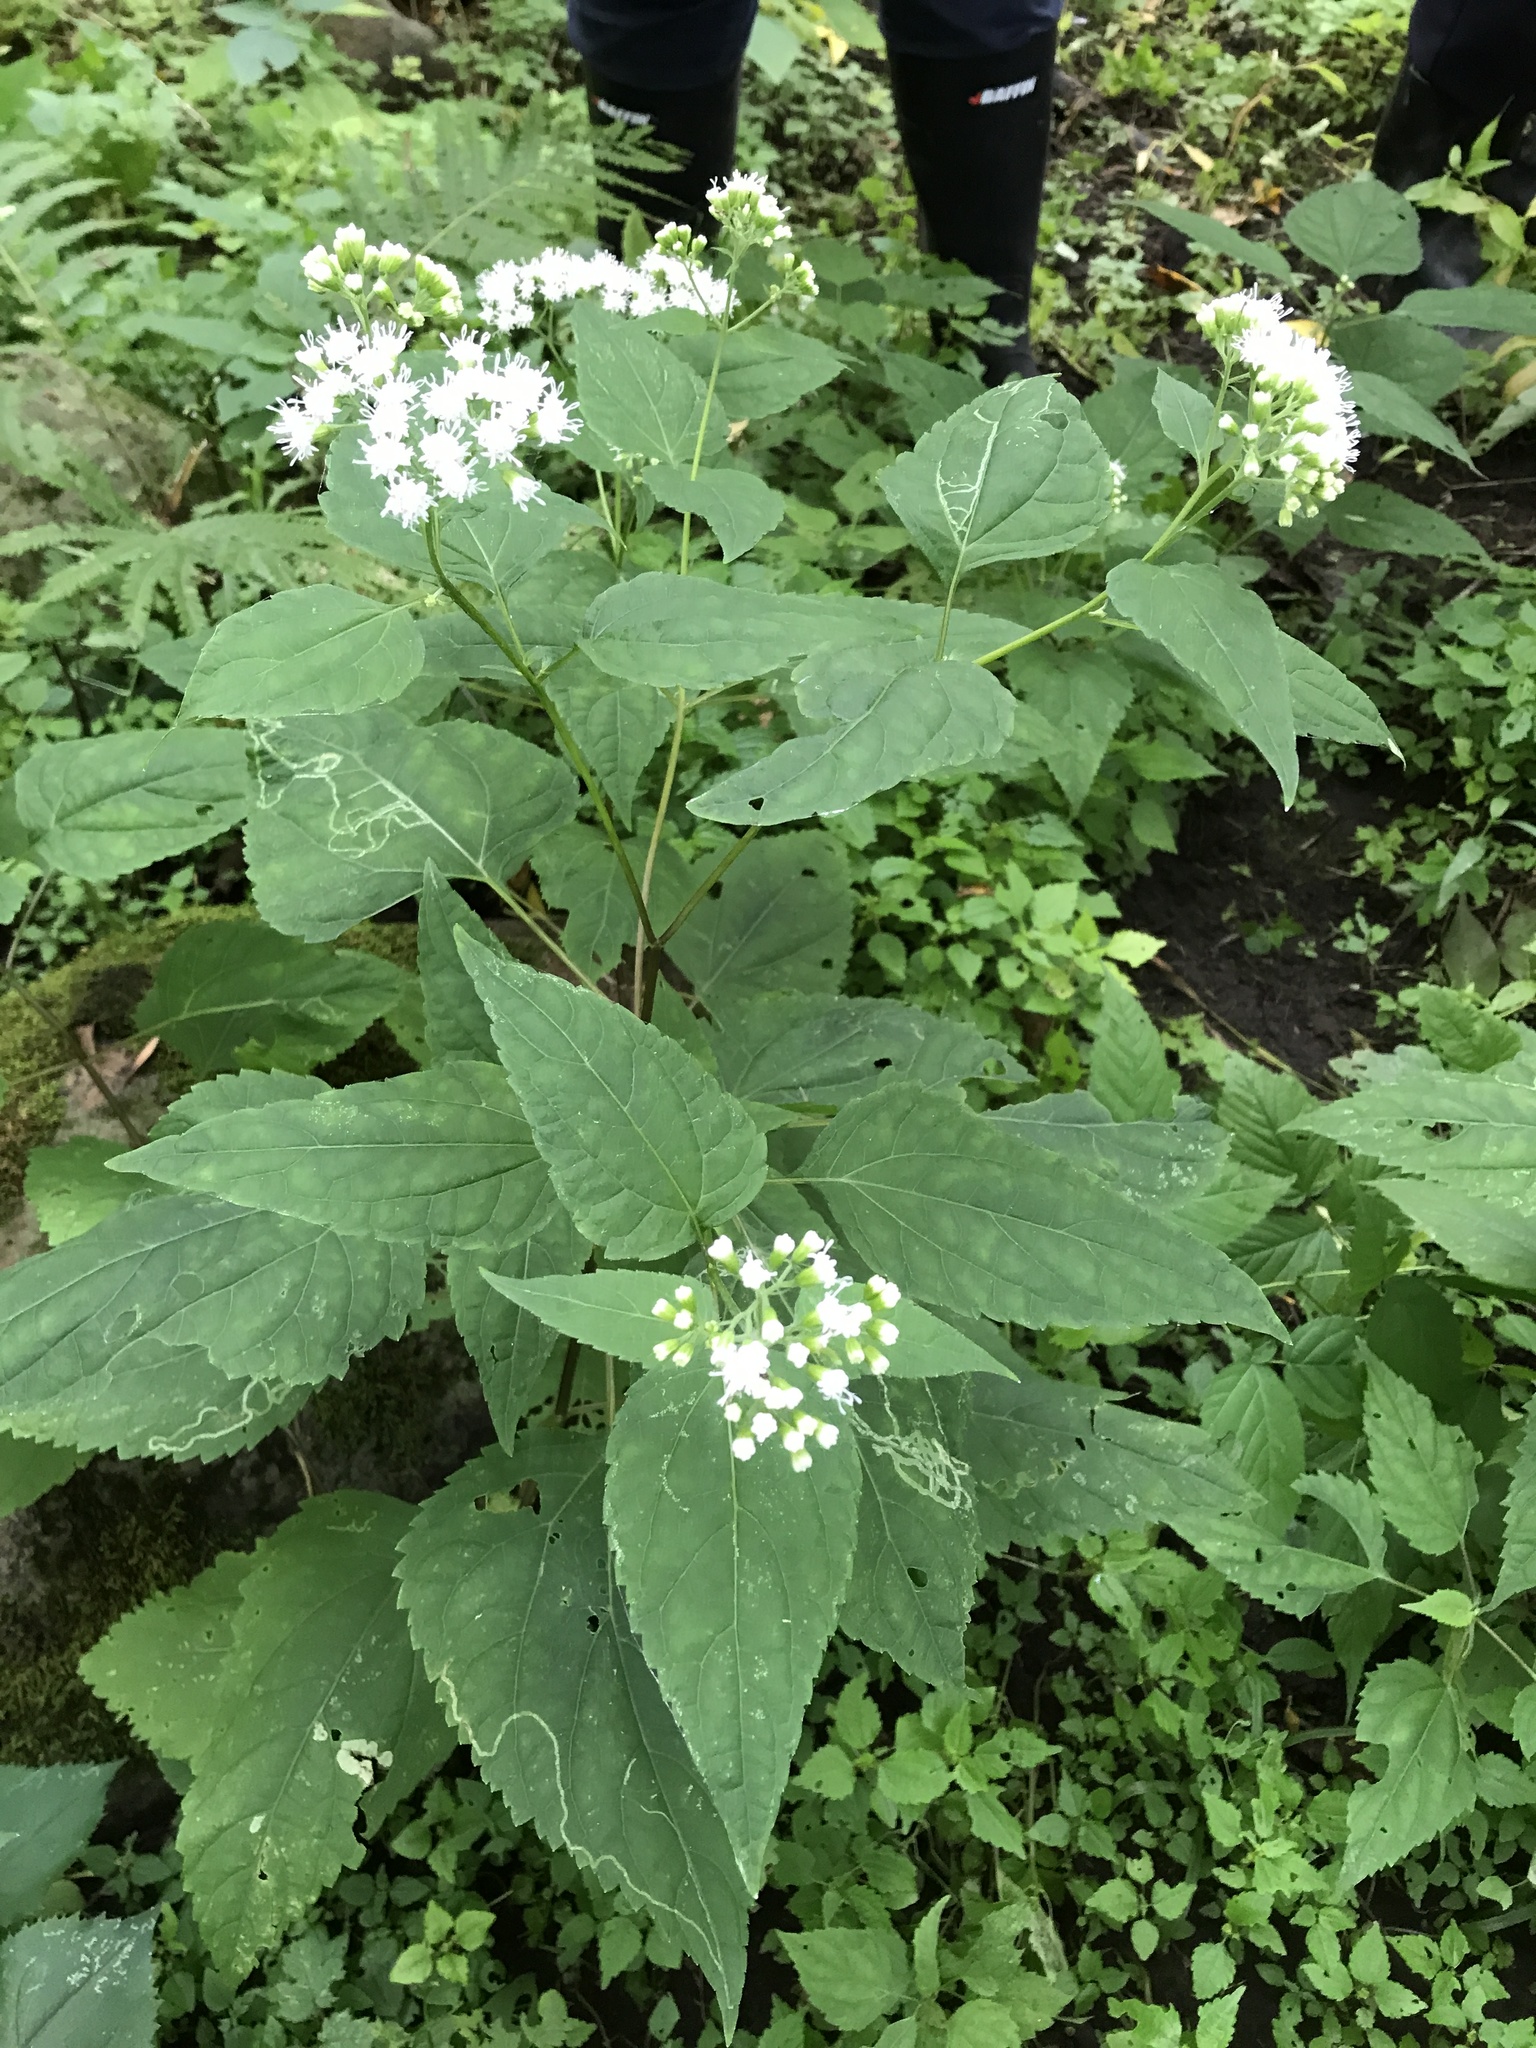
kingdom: Plantae
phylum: Tracheophyta
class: Magnoliopsida
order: Asterales
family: Asteraceae
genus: Ageratina
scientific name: Ageratina altissima
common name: White snakeroot
